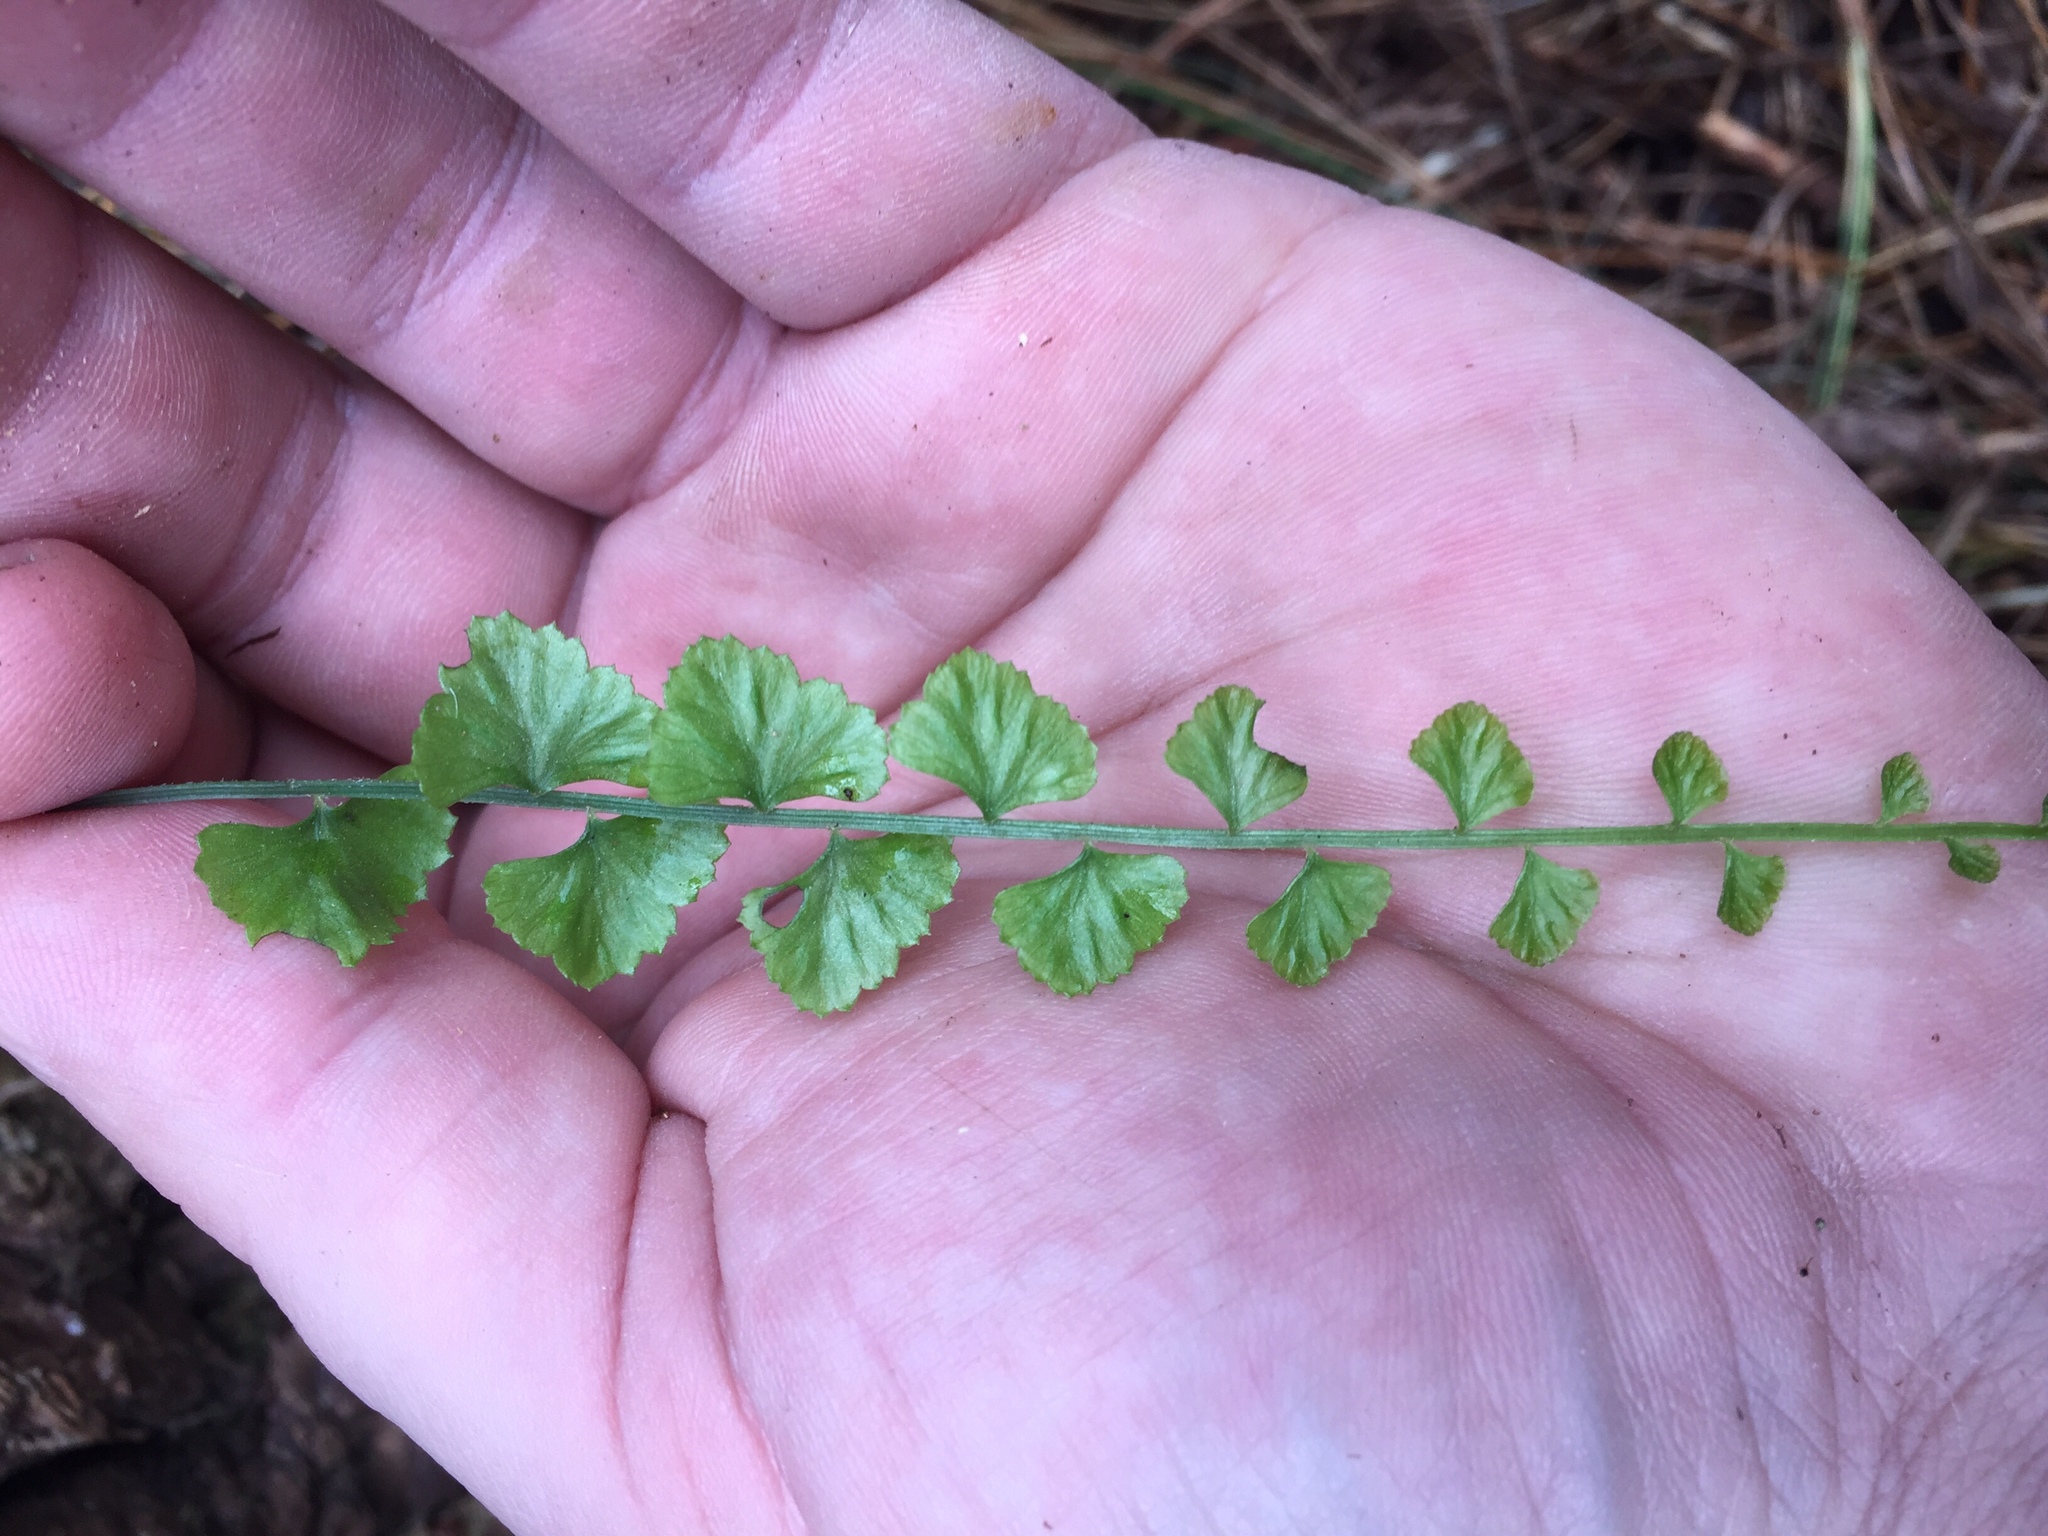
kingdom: Plantae
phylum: Tracheophyta
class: Polypodiopsida
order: Polypodiales
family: Aspleniaceae
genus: Asplenium
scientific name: Asplenium flabellifolium
